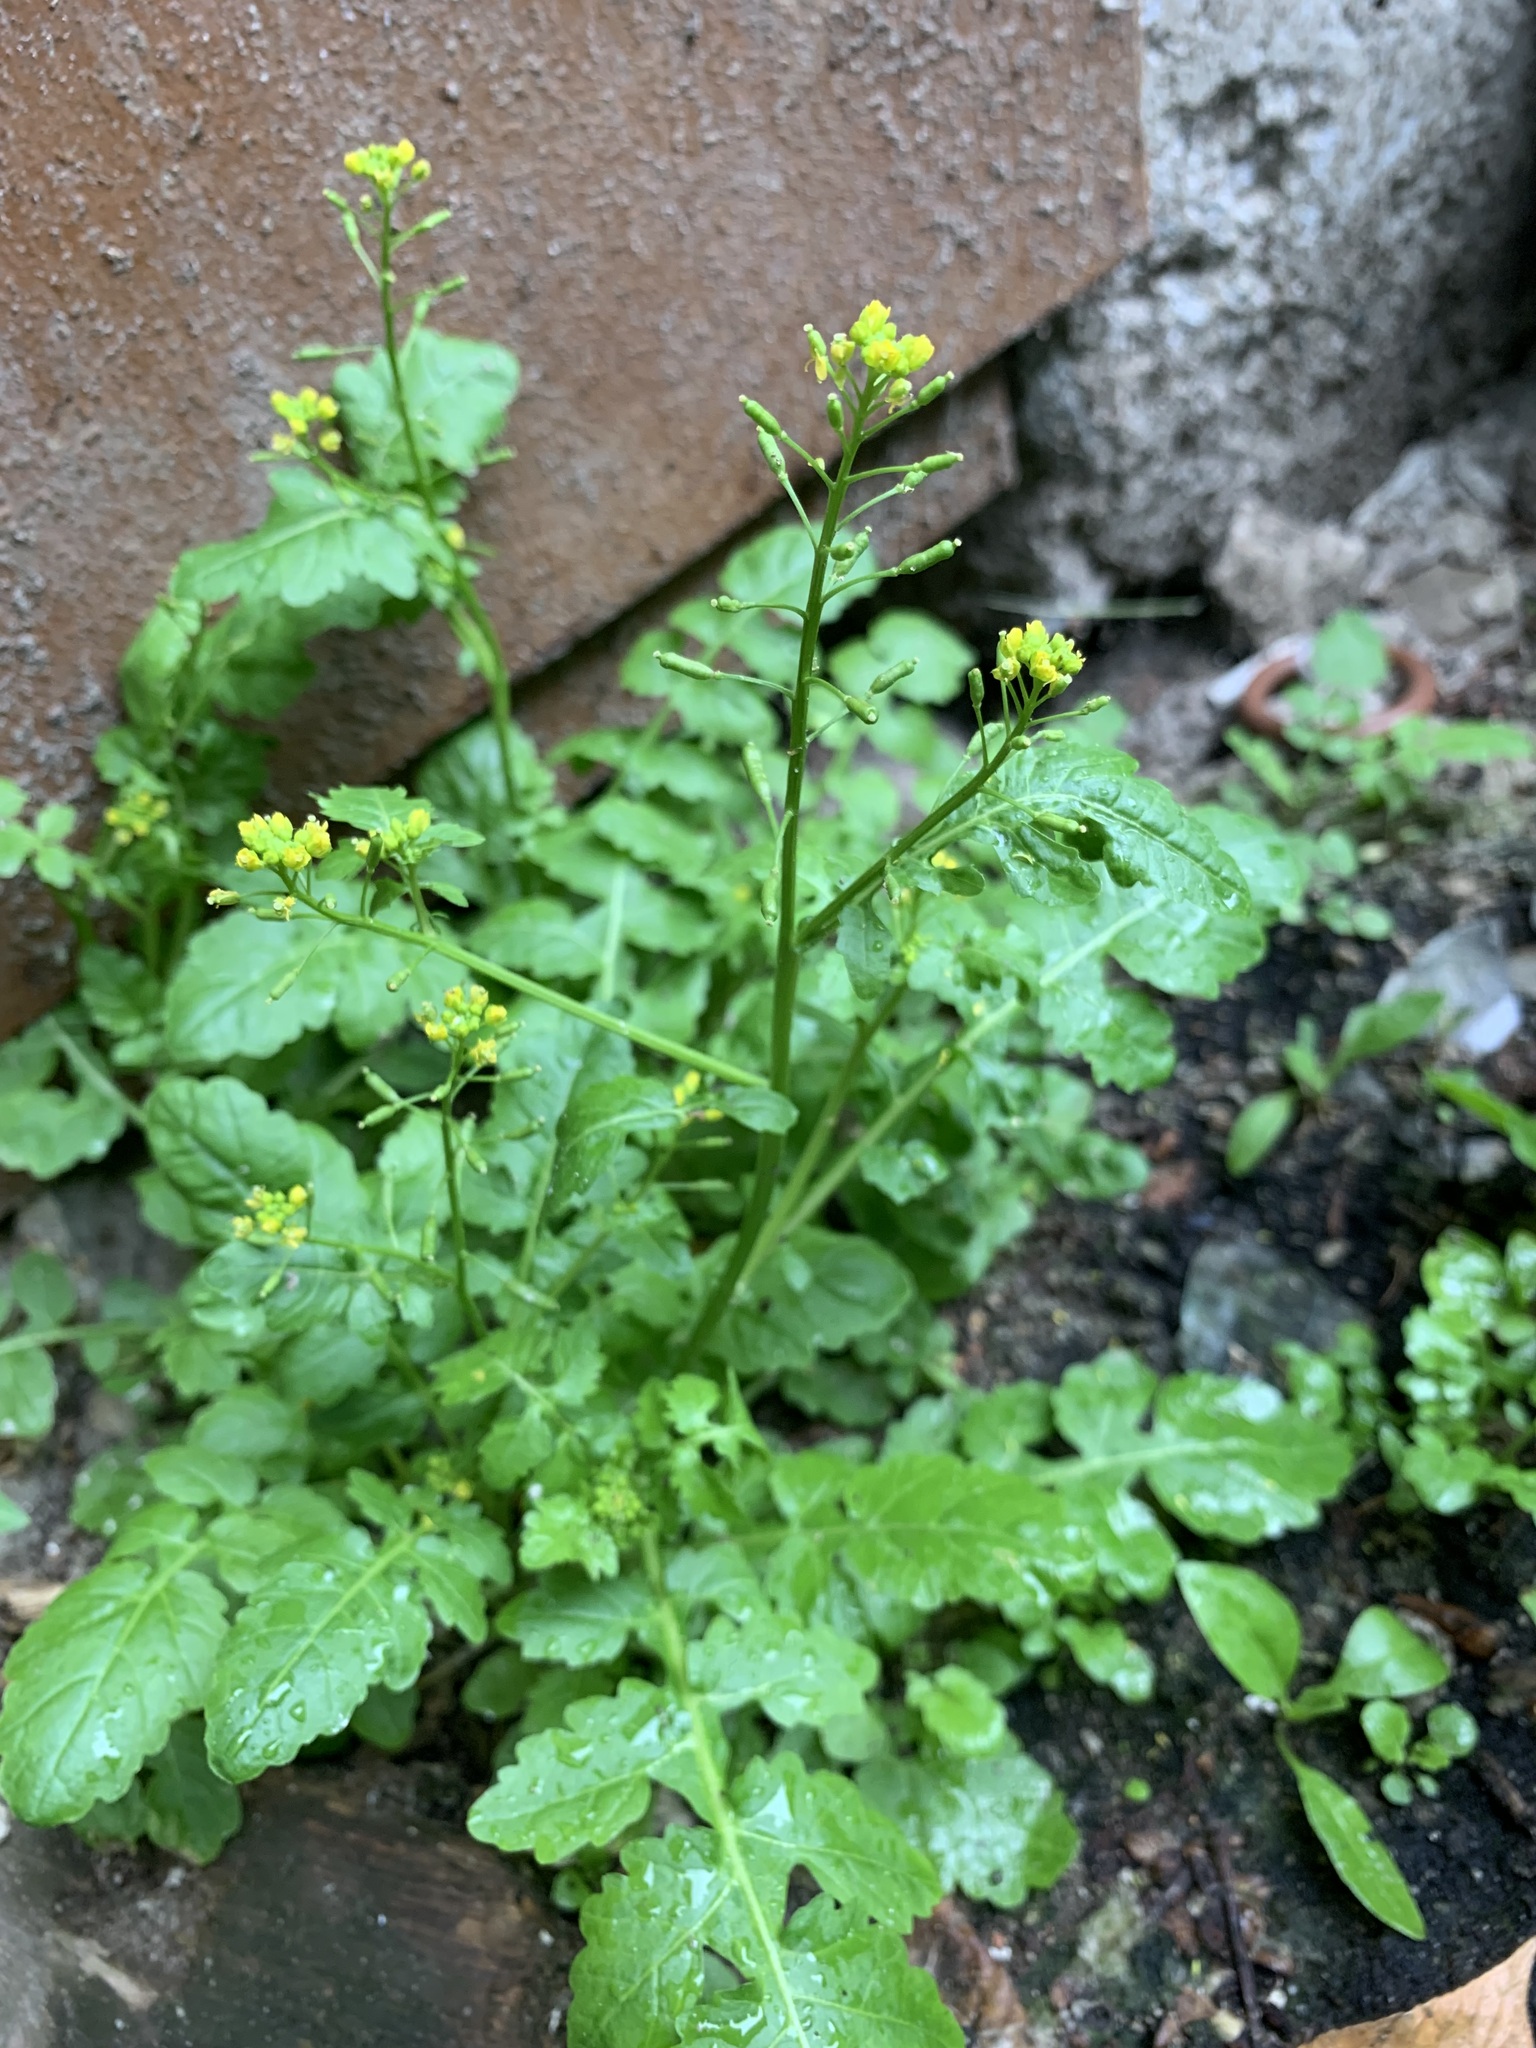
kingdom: Plantae
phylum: Tracheophyta
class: Magnoliopsida
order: Brassicales
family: Brassicaceae
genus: Rorippa
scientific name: Rorippa palustris
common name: Marsh yellow-cress
